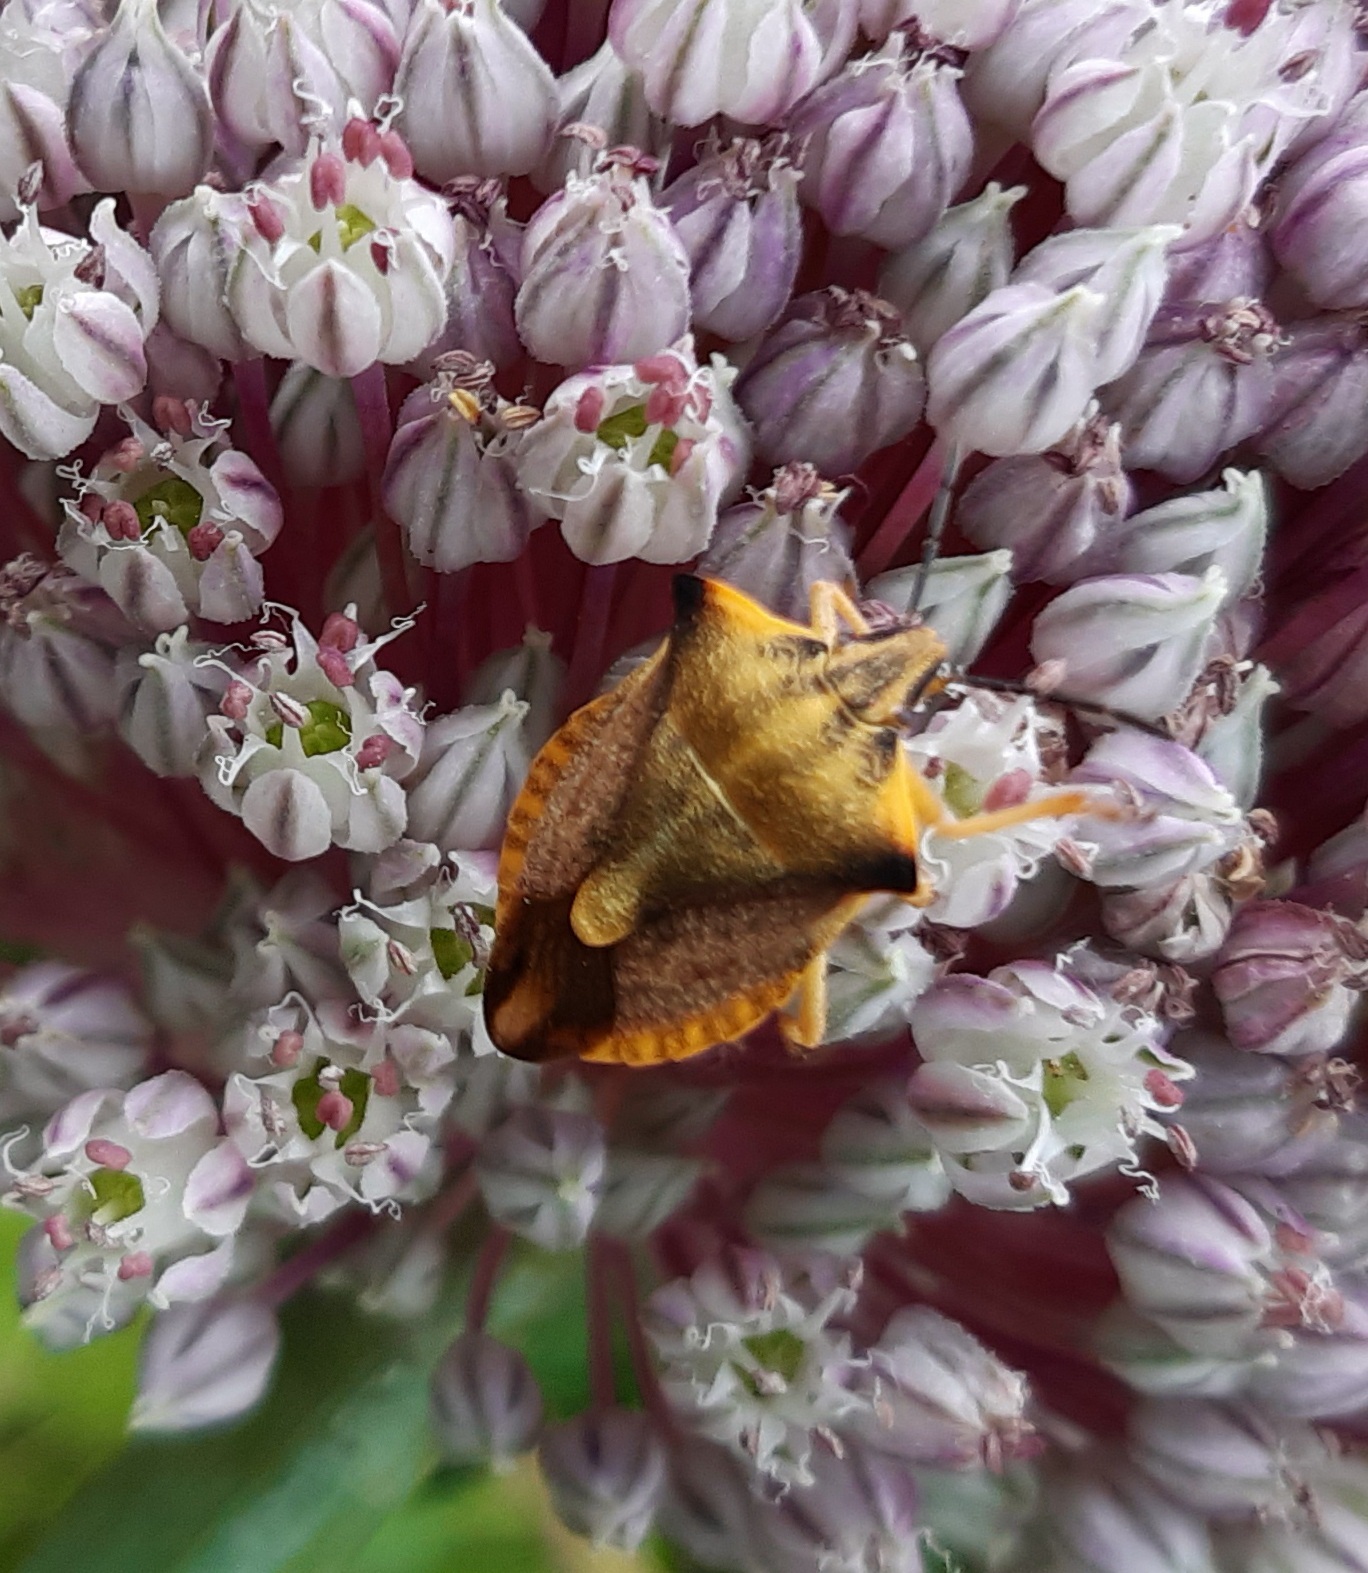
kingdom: Animalia
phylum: Arthropoda
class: Insecta
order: Hemiptera
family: Pentatomidae
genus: Carpocoris
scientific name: Carpocoris fuscispinus
